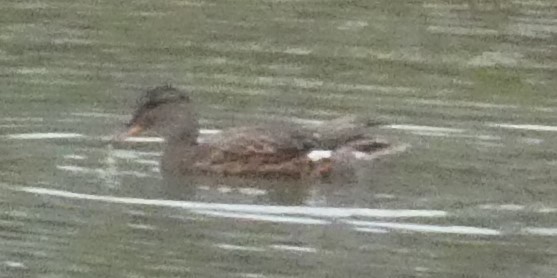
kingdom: Animalia
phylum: Chordata
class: Aves
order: Anseriformes
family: Anatidae
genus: Mareca
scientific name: Mareca strepera
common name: Gadwall
